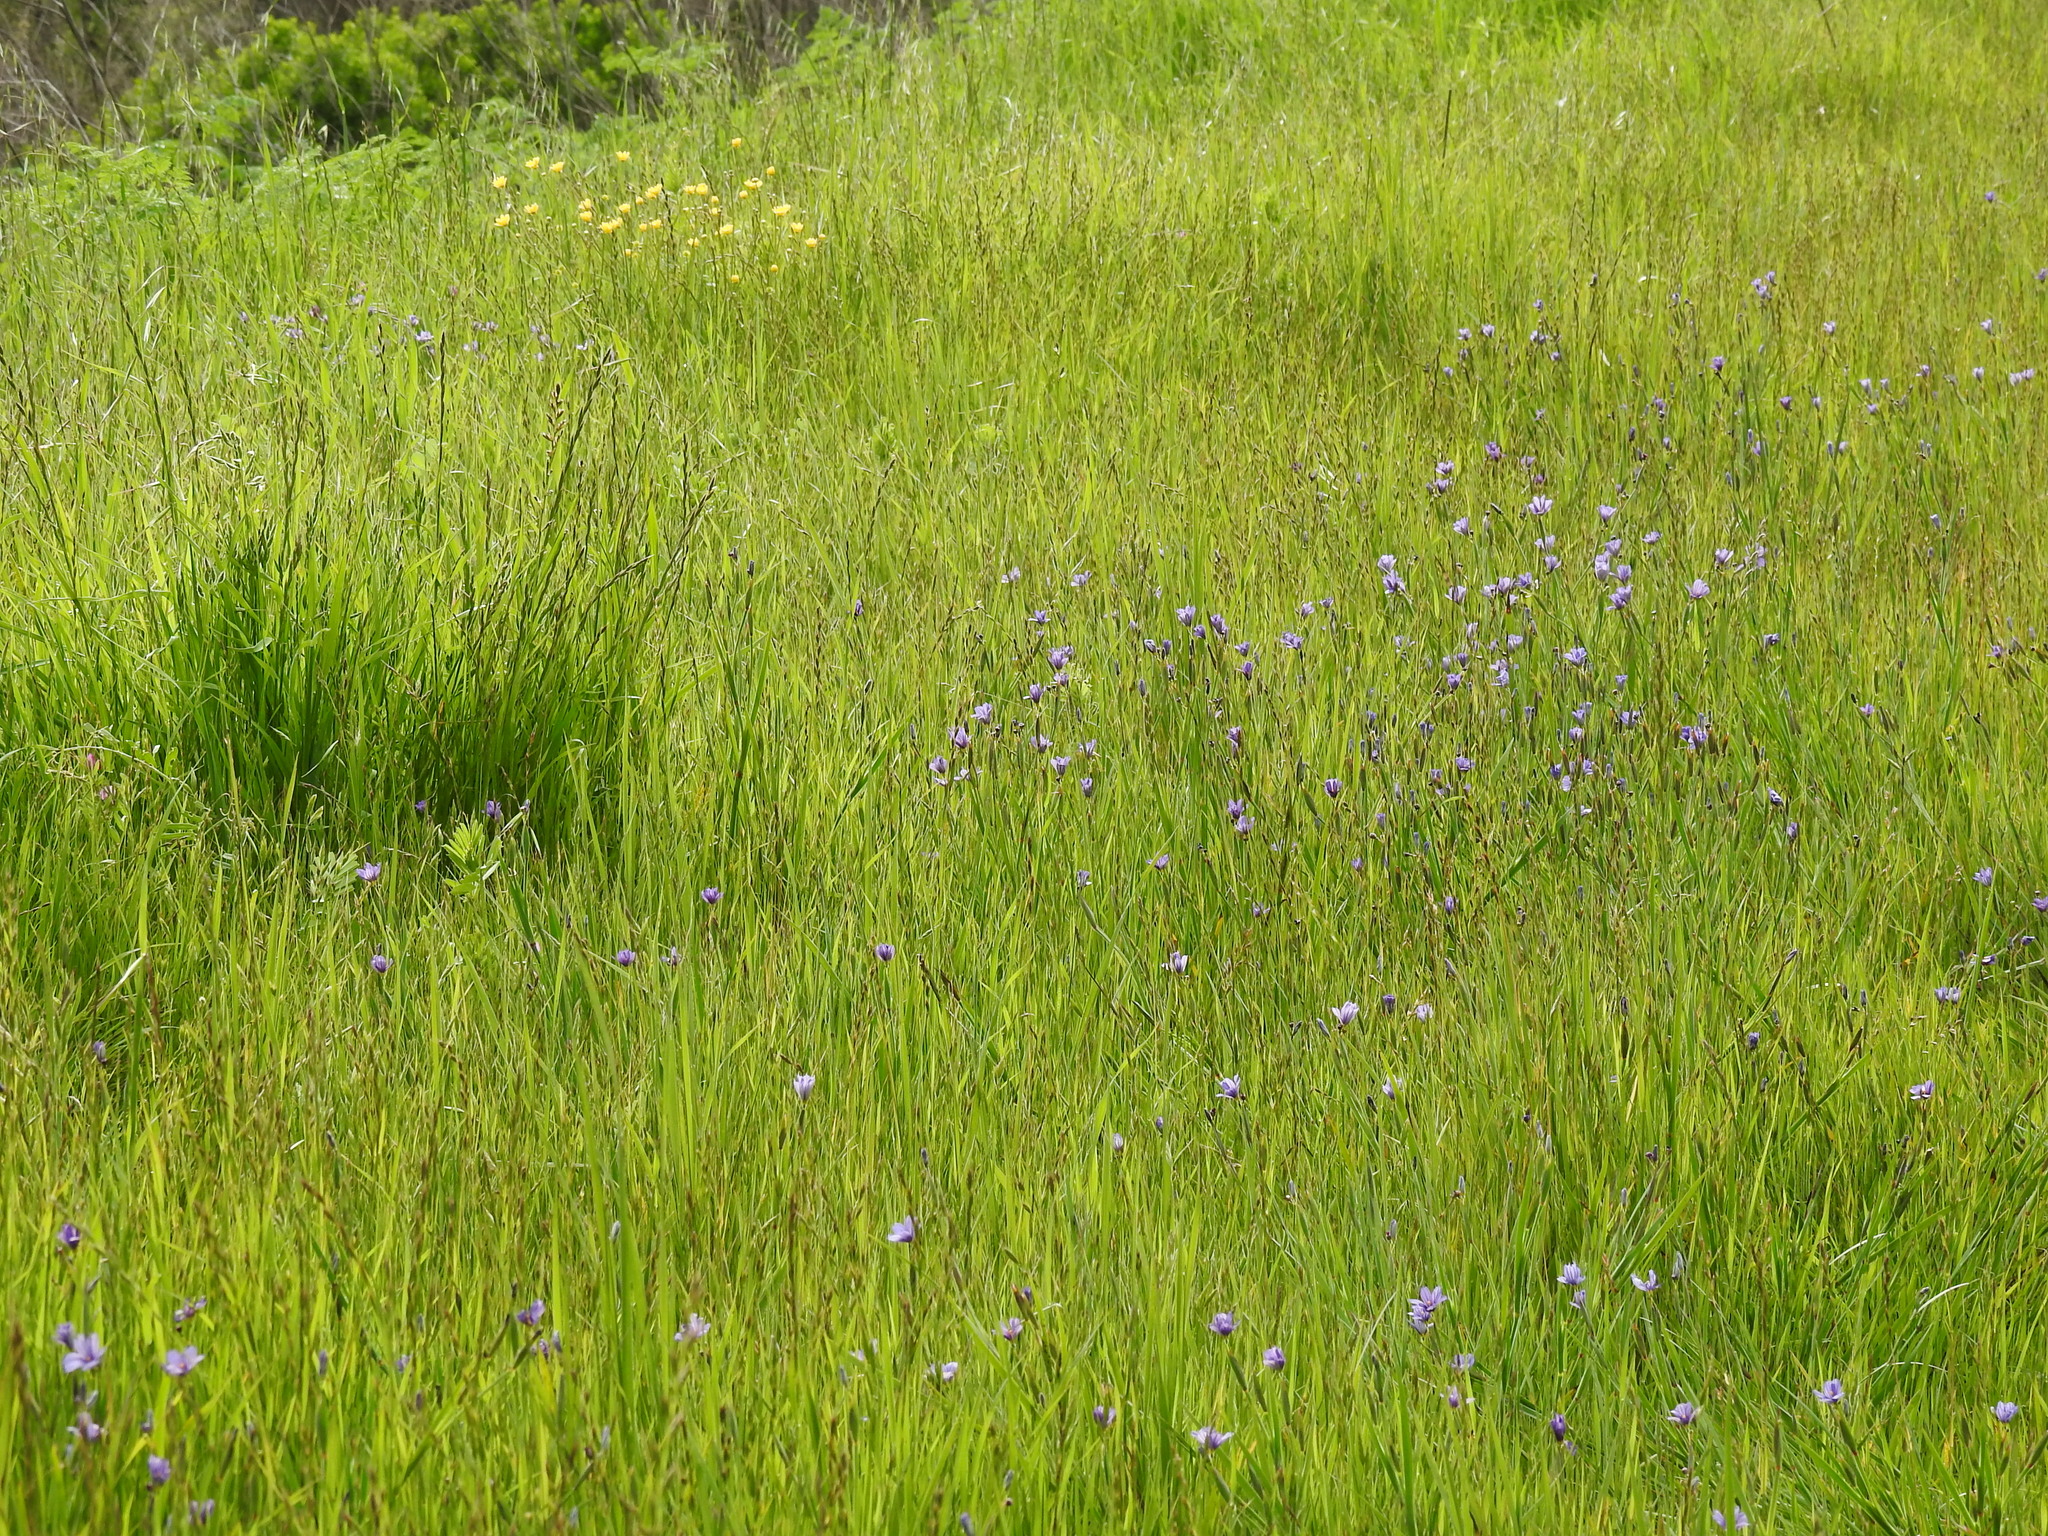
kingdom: Plantae
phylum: Tracheophyta
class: Liliopsida
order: Asparagales
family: Iridaceae
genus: Sisyrinchium
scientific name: Sisyrinchium bellum
